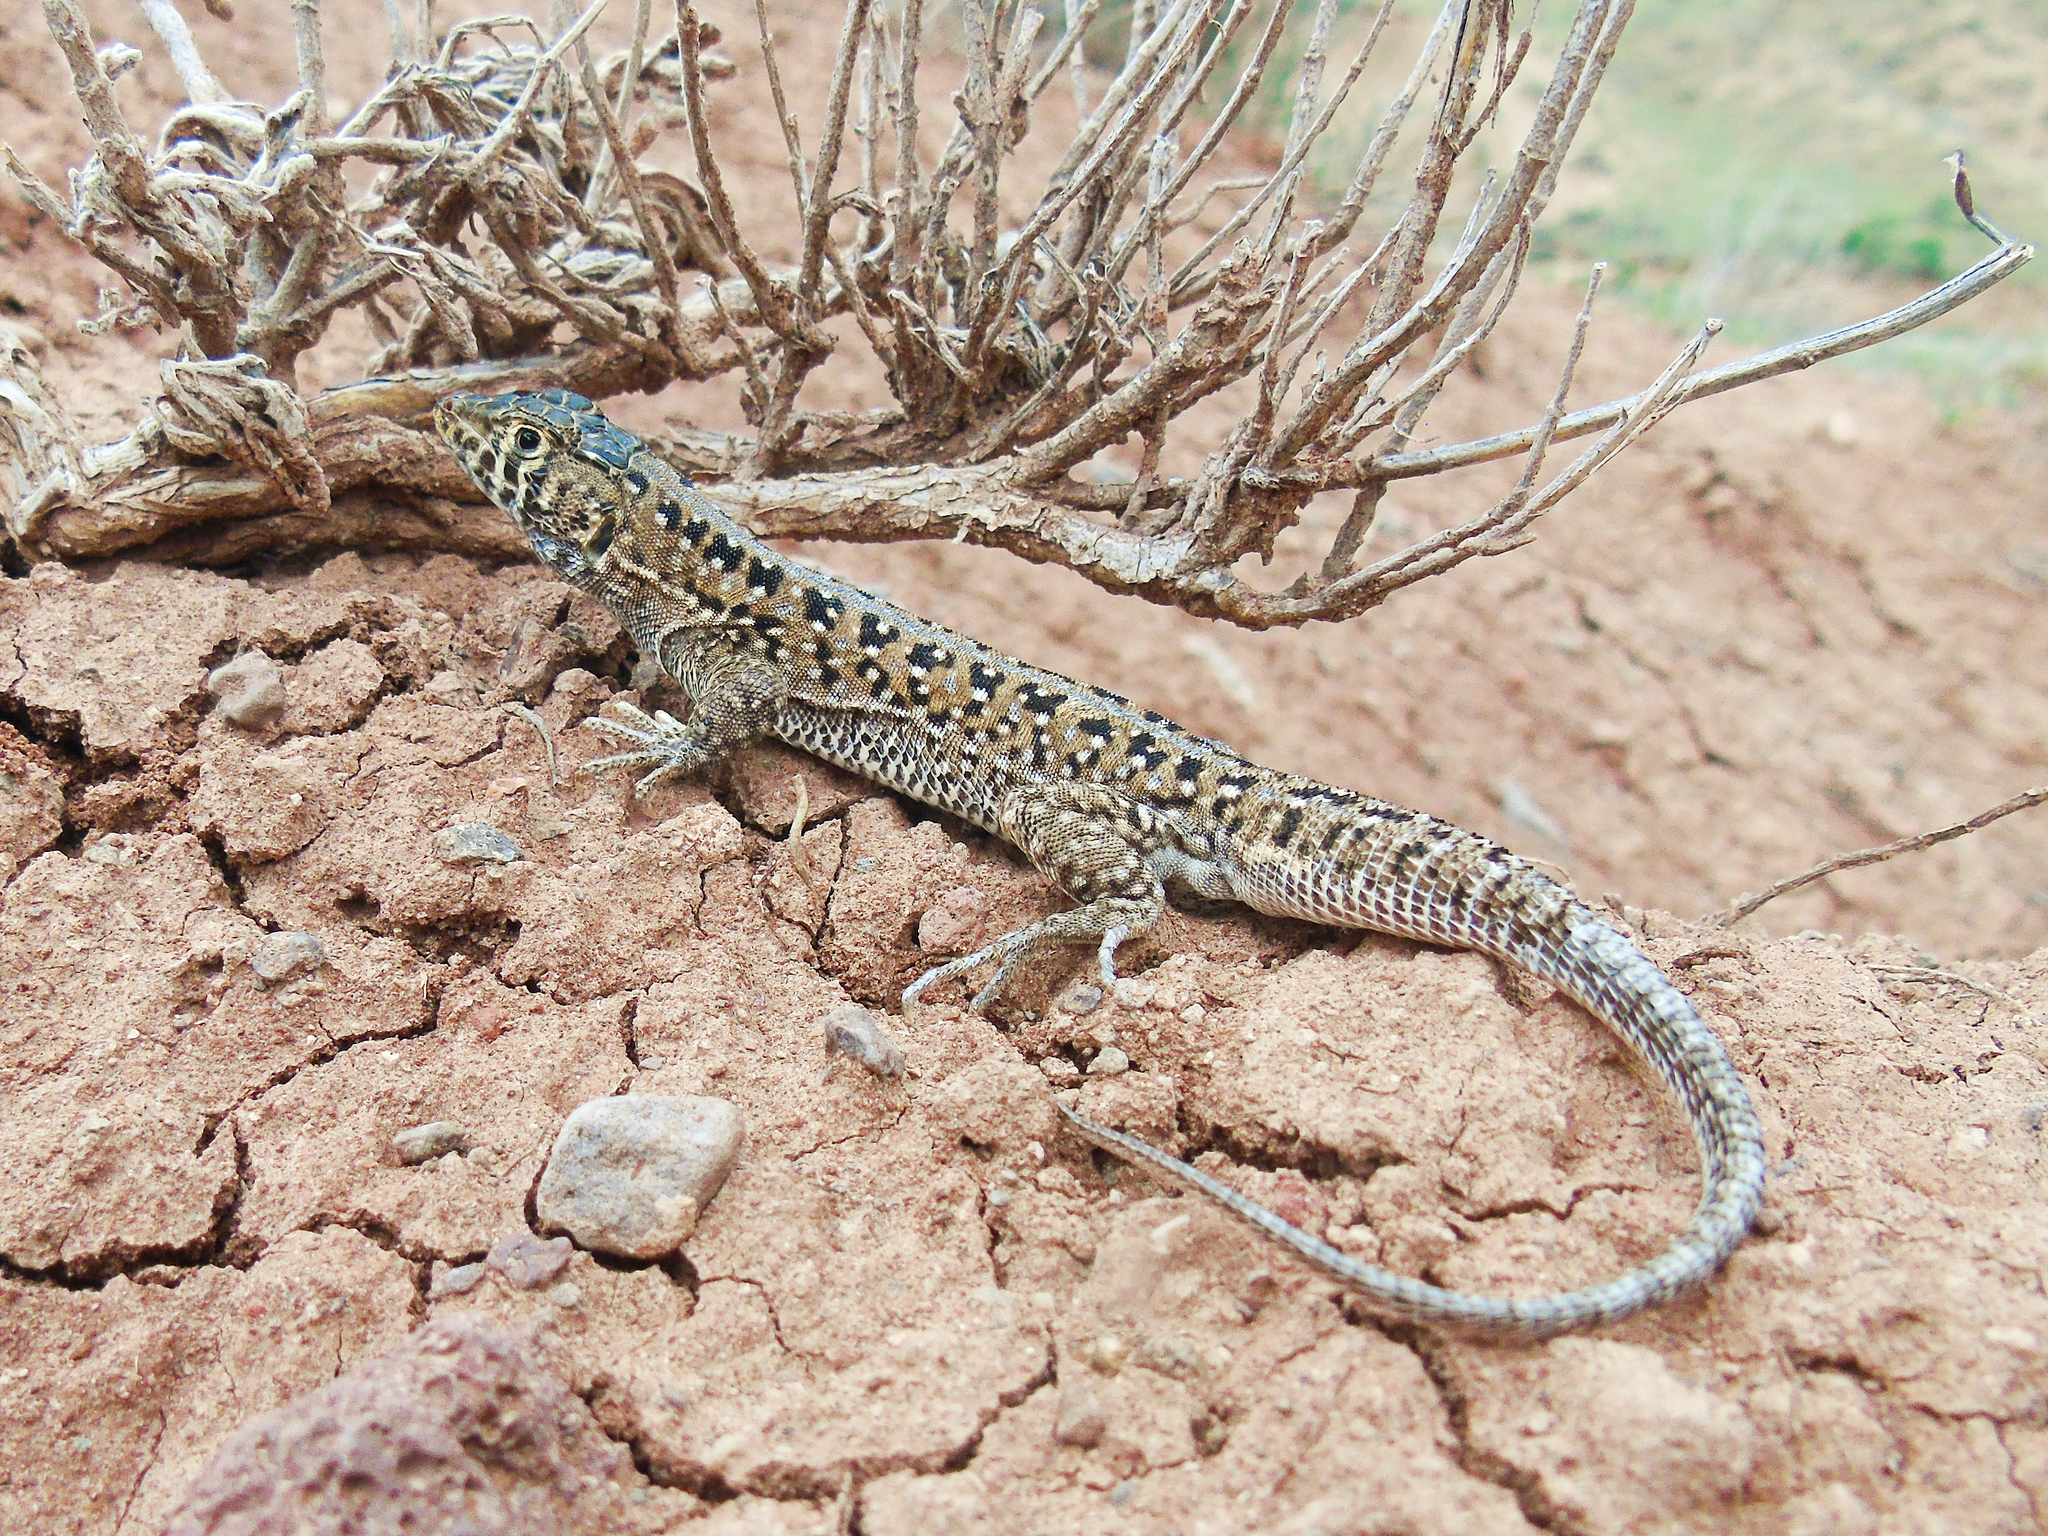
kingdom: Animalia
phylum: Chordata
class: Squamata
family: Lacertidae
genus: Acanthodactylus
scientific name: Acanthodactylus ilgazi
